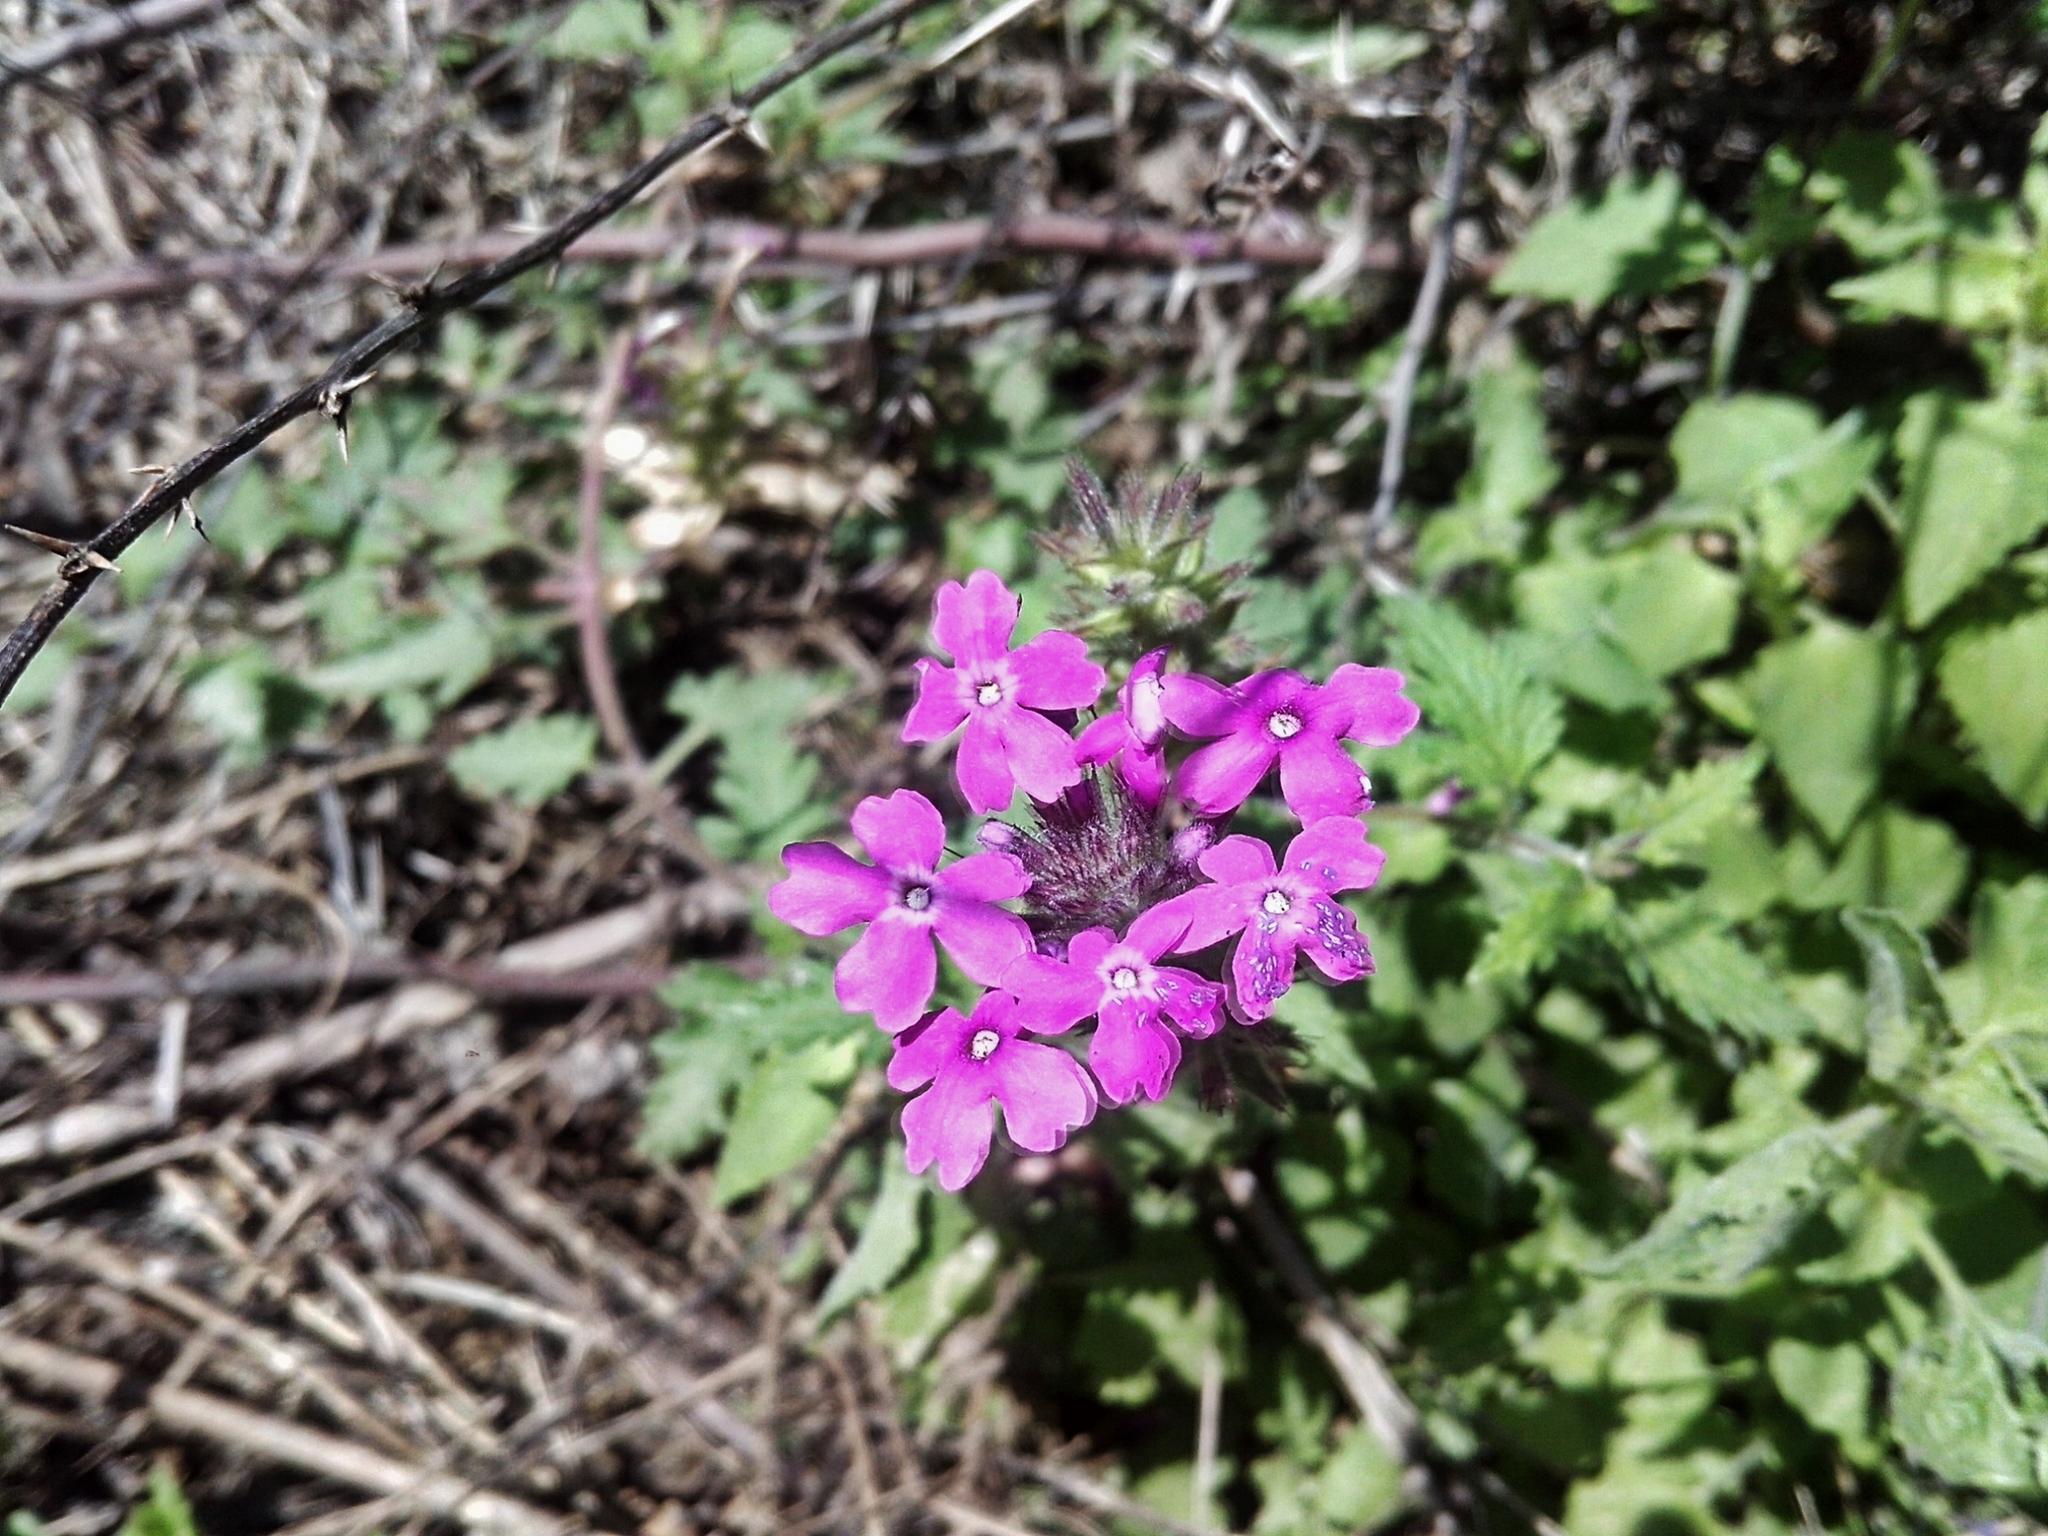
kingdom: Plantae
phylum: Tracheophyta
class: Magnoliopsida
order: Lamiales
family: Verbenaceae
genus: Verbena
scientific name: Verbena canadensis
